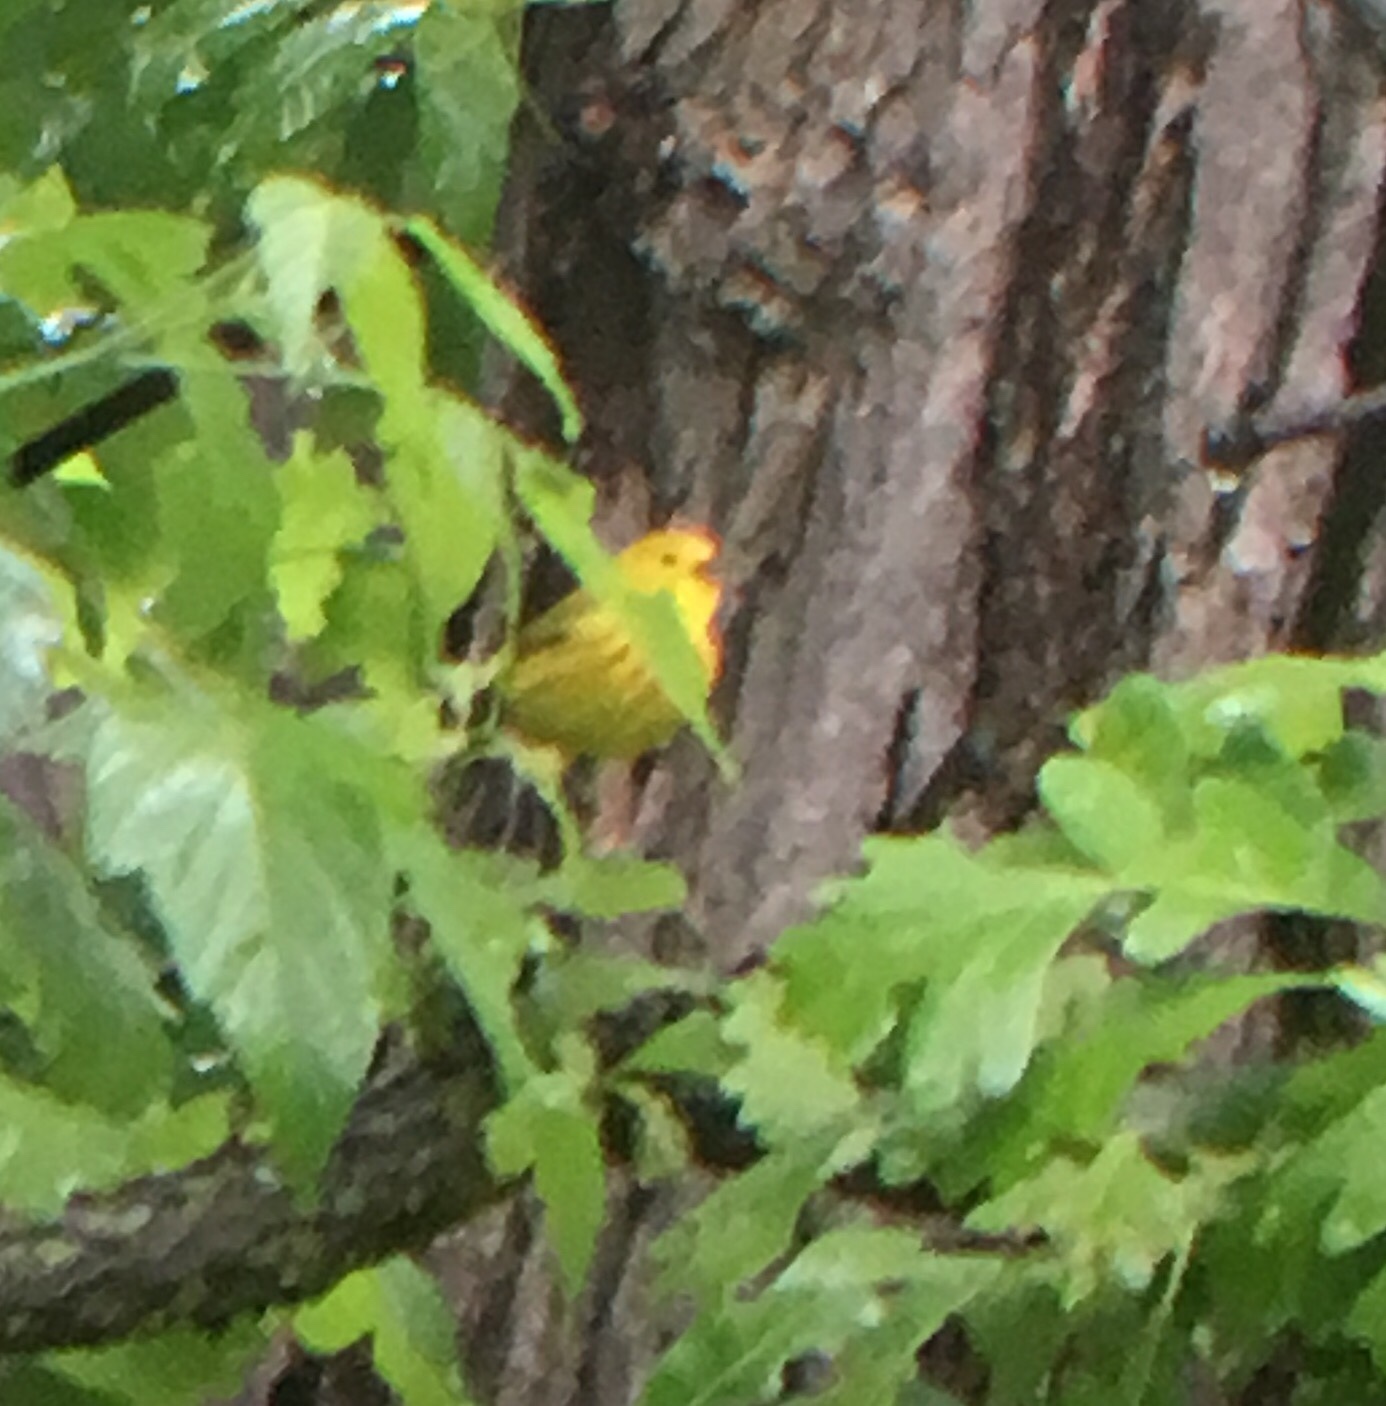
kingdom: Animalia
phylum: Chordata
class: Aves
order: Passeriformes
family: Parulidae
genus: Setophaga
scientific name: Setophaga petechia
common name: Yellow warbler
